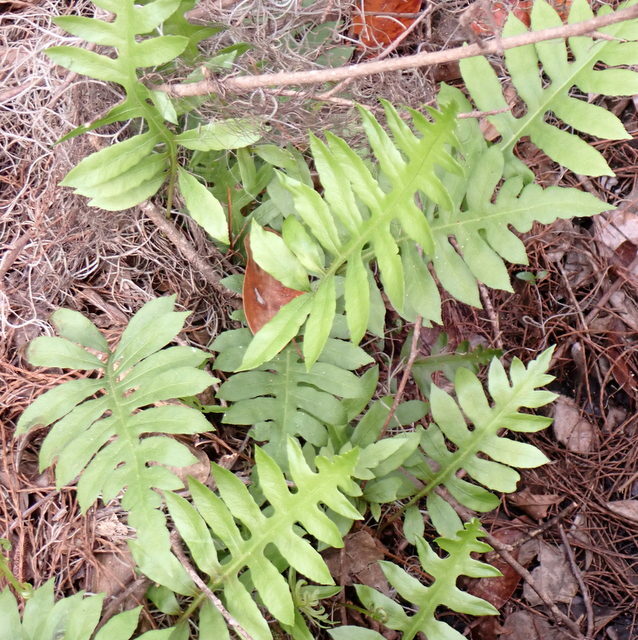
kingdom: Plantae
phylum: Tracheophyta
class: Polypodiopsida
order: Polypodiales
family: Blechnaceae
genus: Lorinseria
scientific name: Lorinseria areolata
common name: Dwarf chain fern
